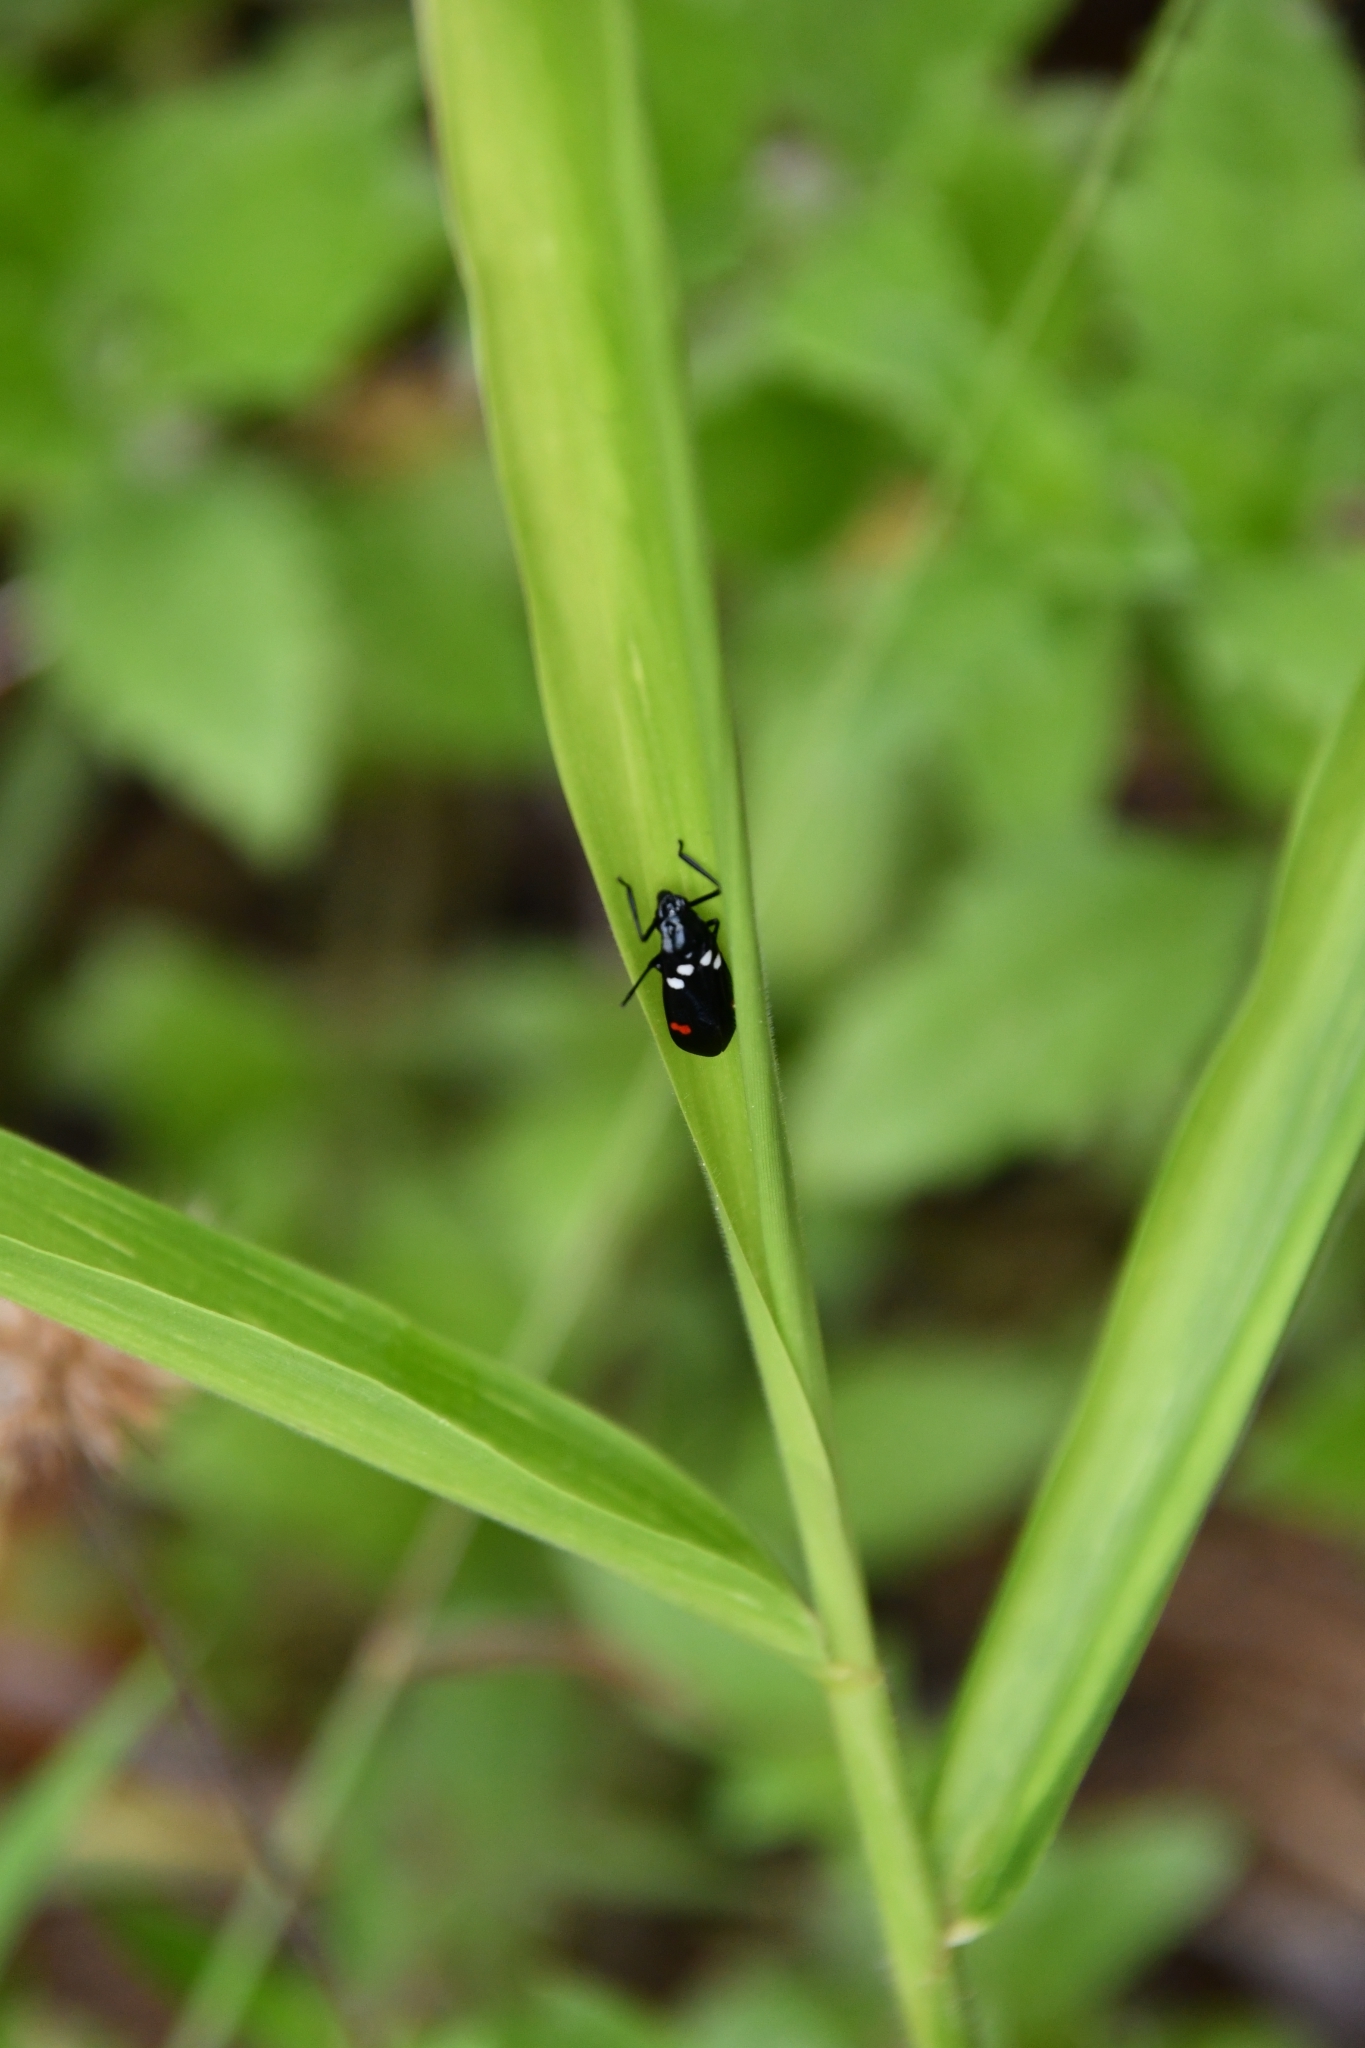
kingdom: Animalia
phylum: Arthropoda
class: Insecta
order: Hemiptera
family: Cercopidae
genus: Callitettix
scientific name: Callitettix versicolor
